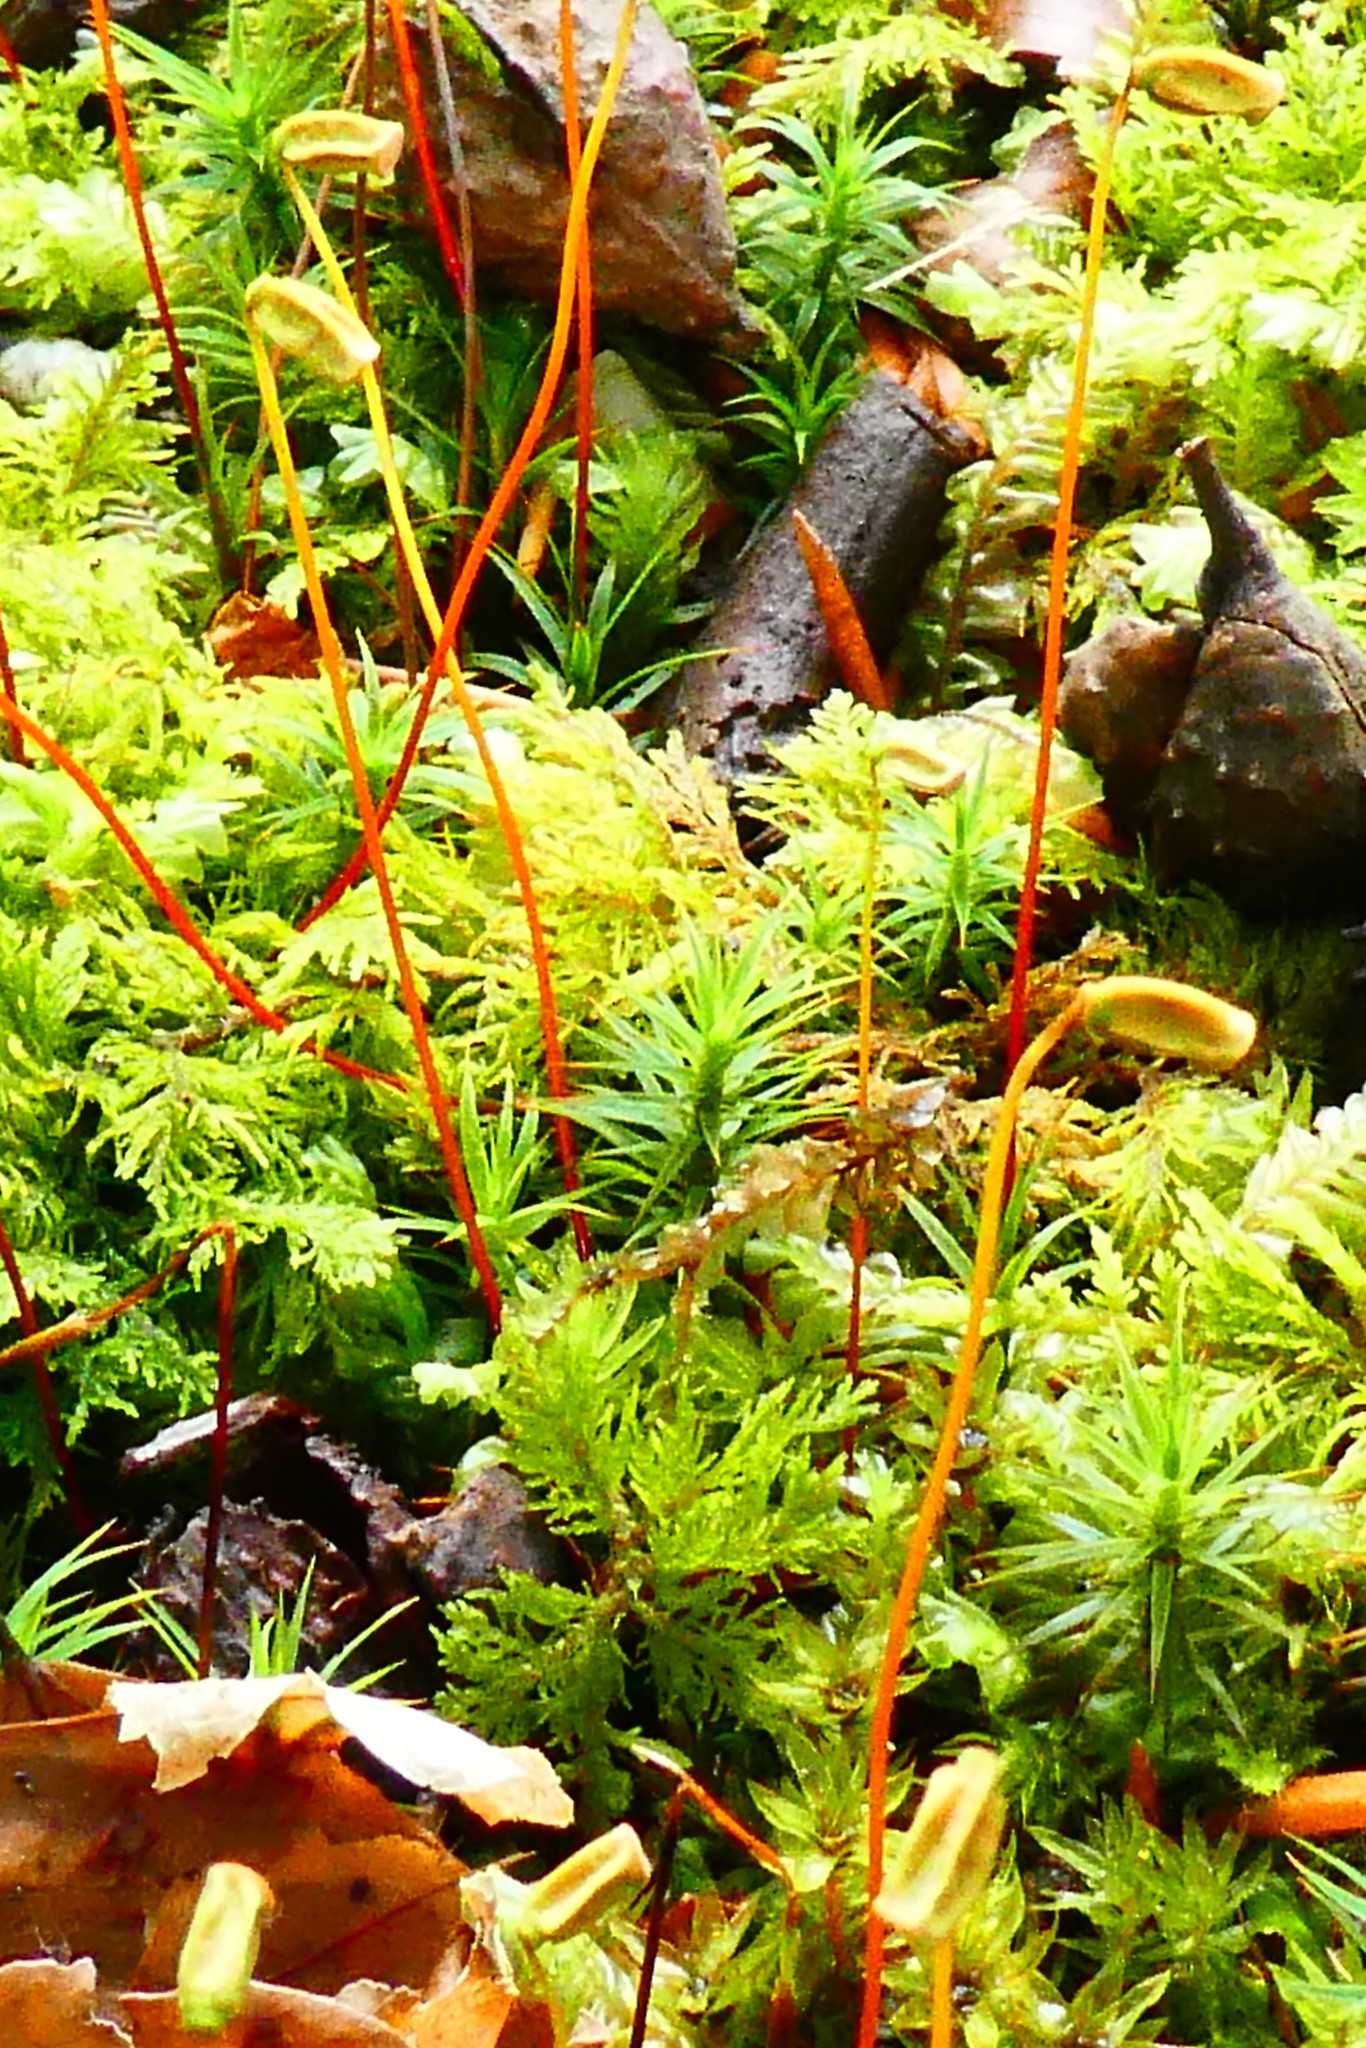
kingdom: Plantae
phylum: Bryophyta
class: Polytrichopsida
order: Polytrichales
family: Polytrichaceae
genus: Polytrichum
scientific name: Polytrichum formosum
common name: Bank haircap moss
